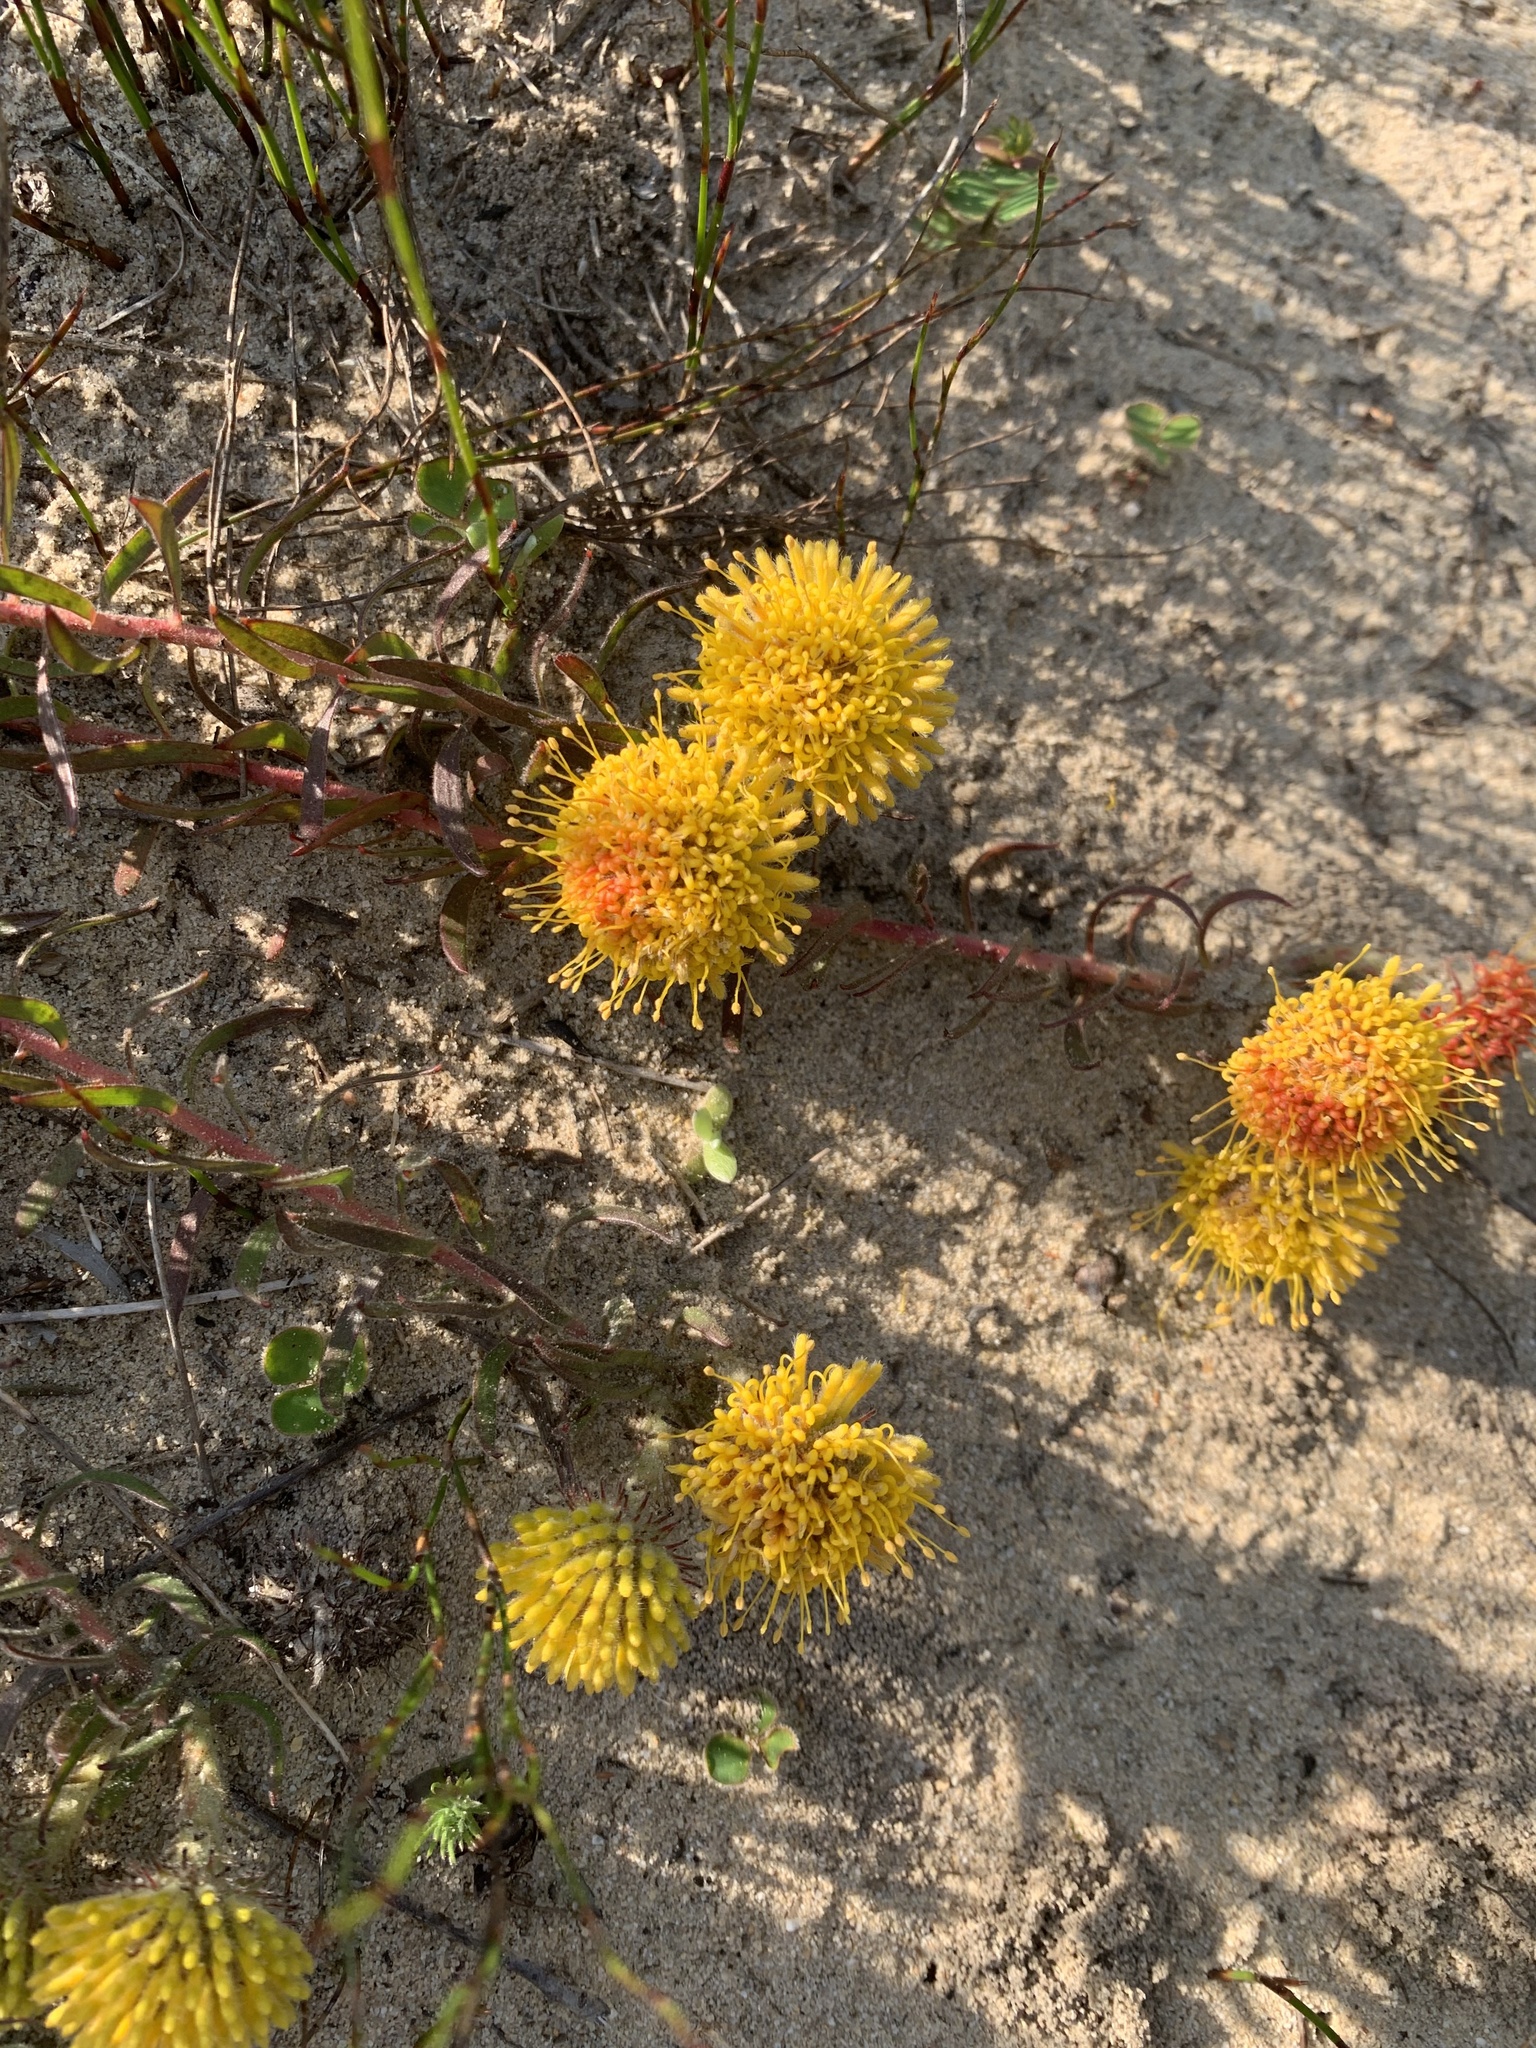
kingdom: Plantae
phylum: Tracheophyta
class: Magnoliopsida
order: Proteales
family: Proteaceae
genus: Leucospermum
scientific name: Leucospermum prostratum
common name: Yellow-trailing pincushion
